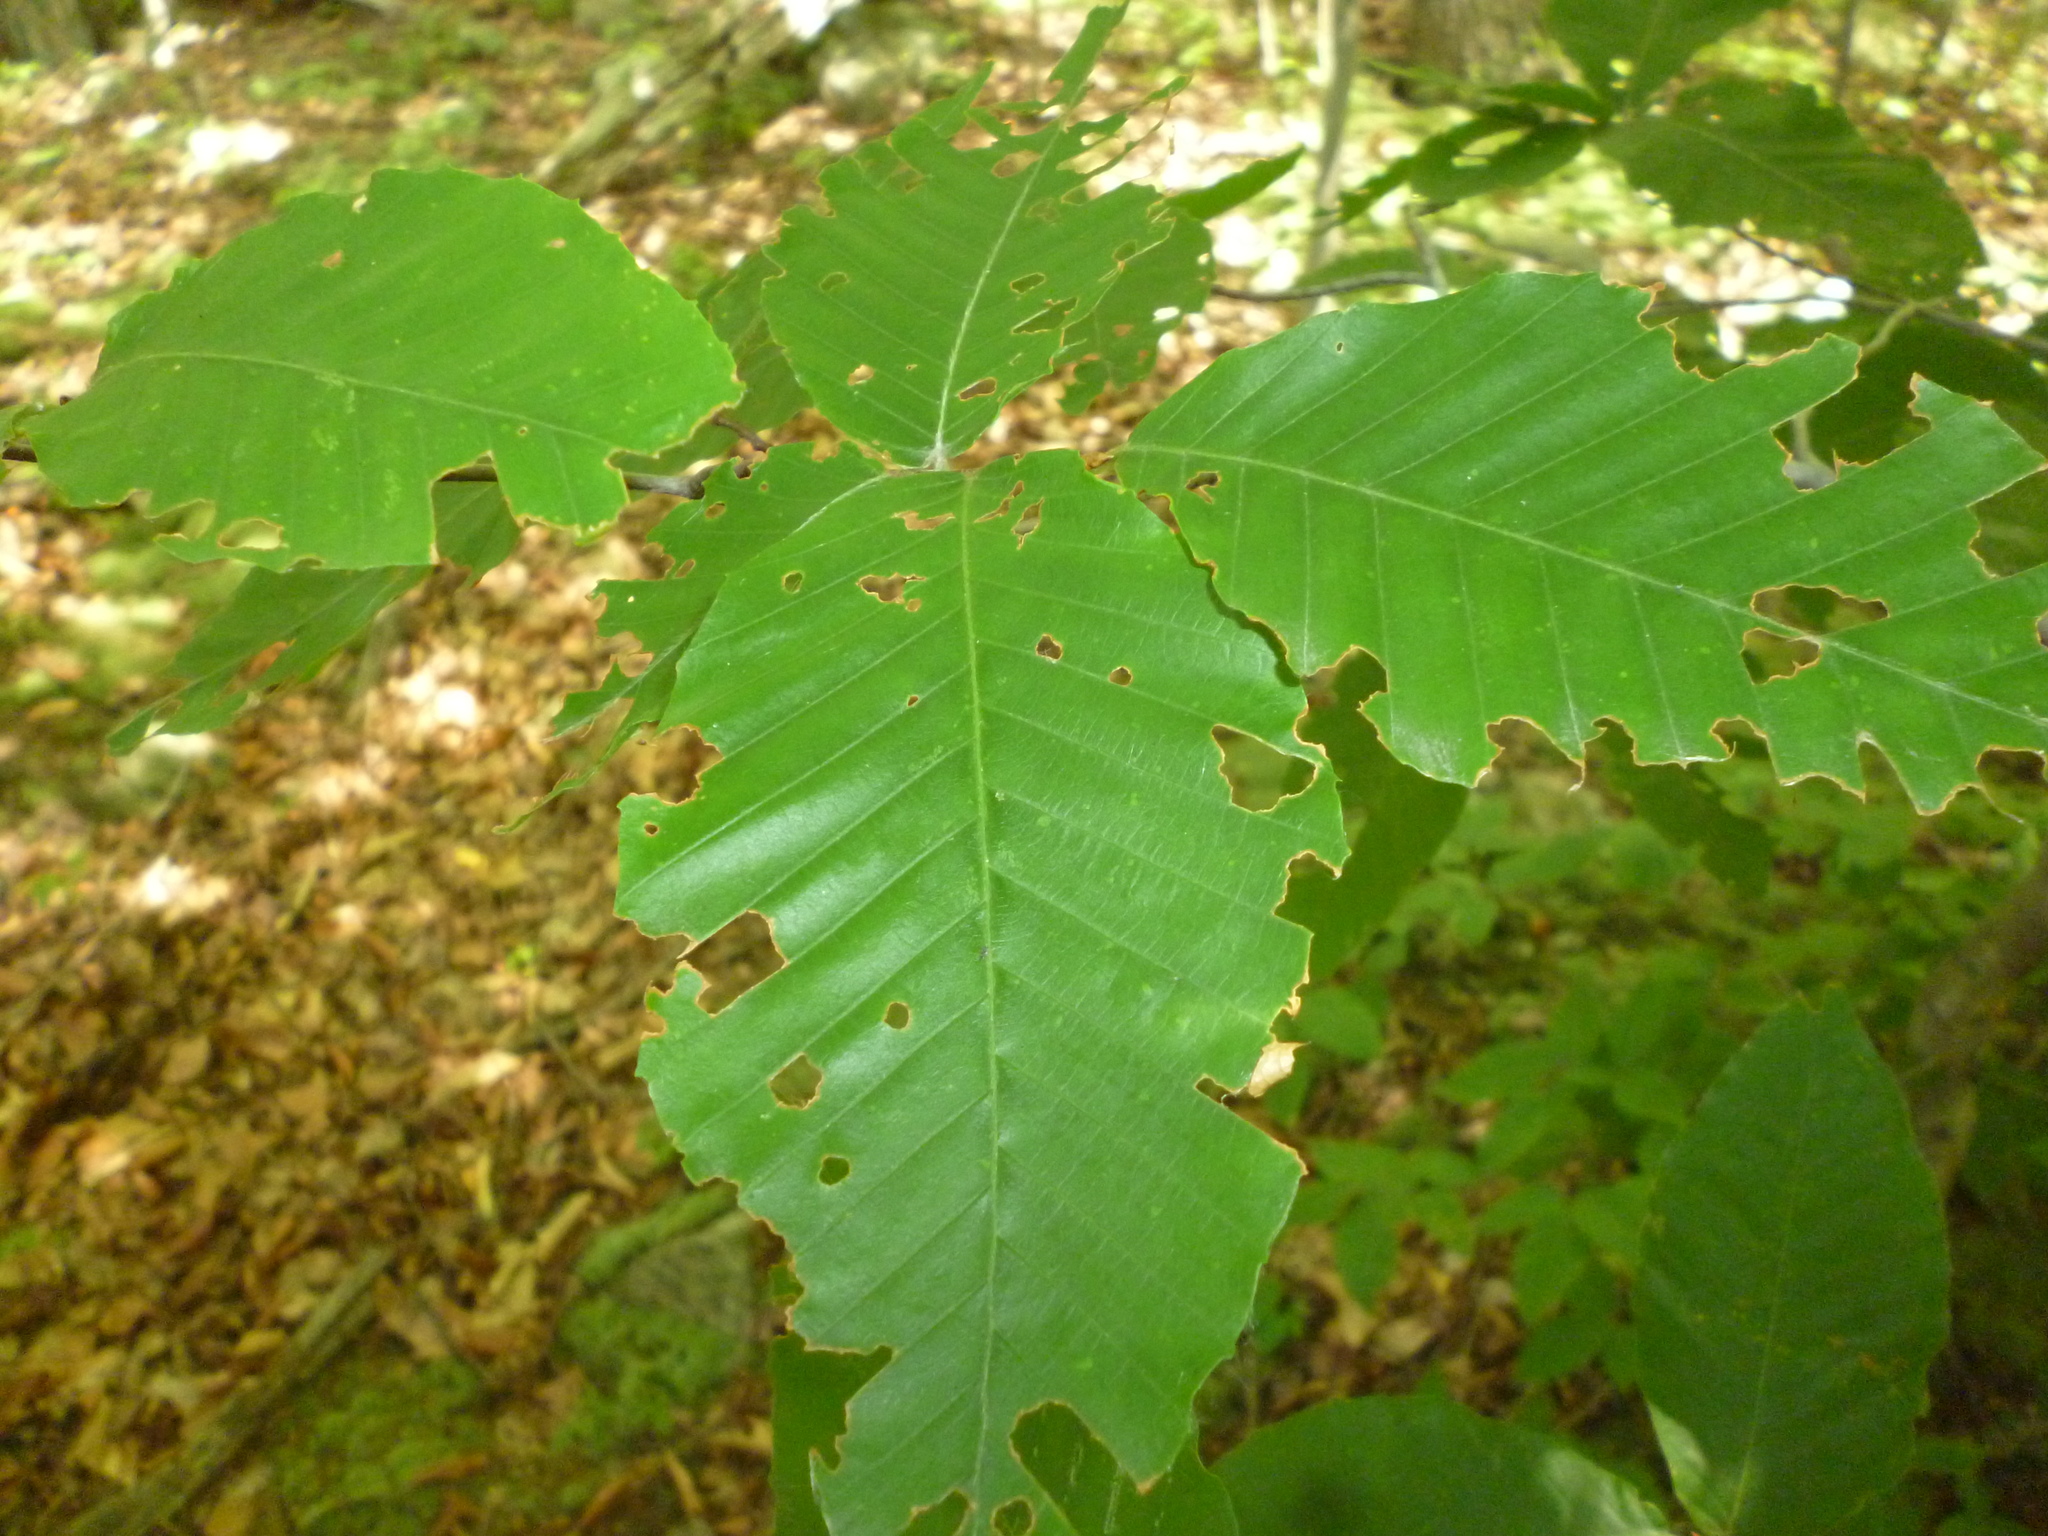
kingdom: Plantae
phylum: Tracheophyta
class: Magnoliopsida
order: Fagales
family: Fagaceae
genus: Fagus
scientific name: Fagus grandifolia
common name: American beech
